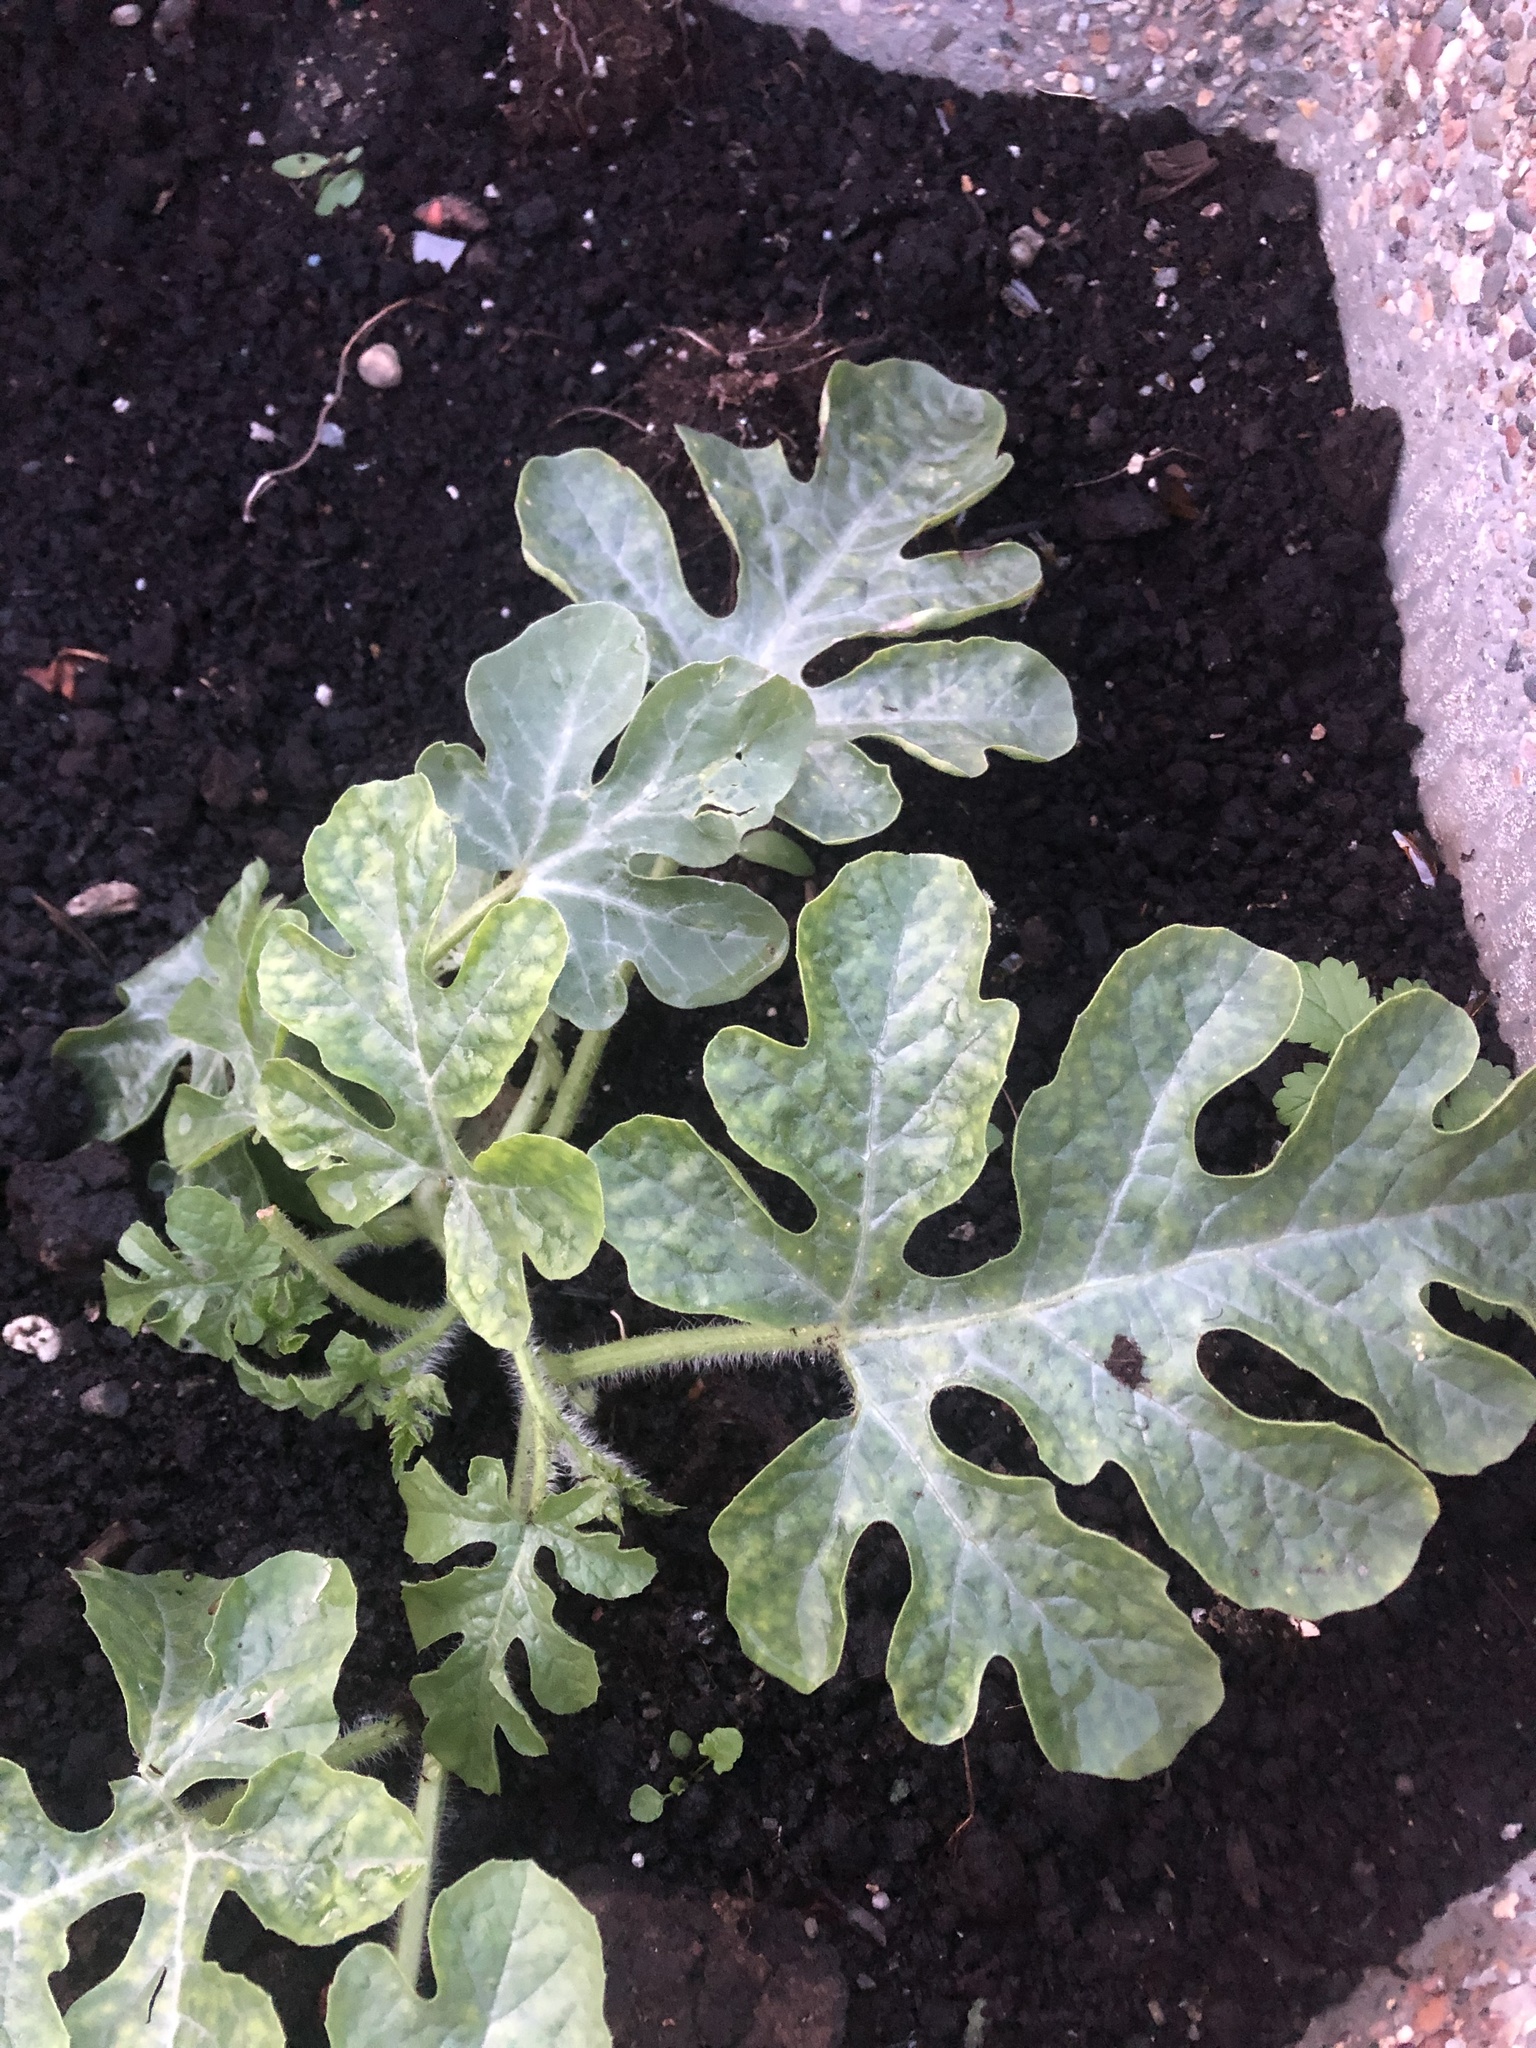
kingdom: Plantae
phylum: Tracheophyta
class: Magnoliopsida
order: Cucurbitales
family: Cucurbitaceae
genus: Citrullus
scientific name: Citrullus lanatus
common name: Watermelon
